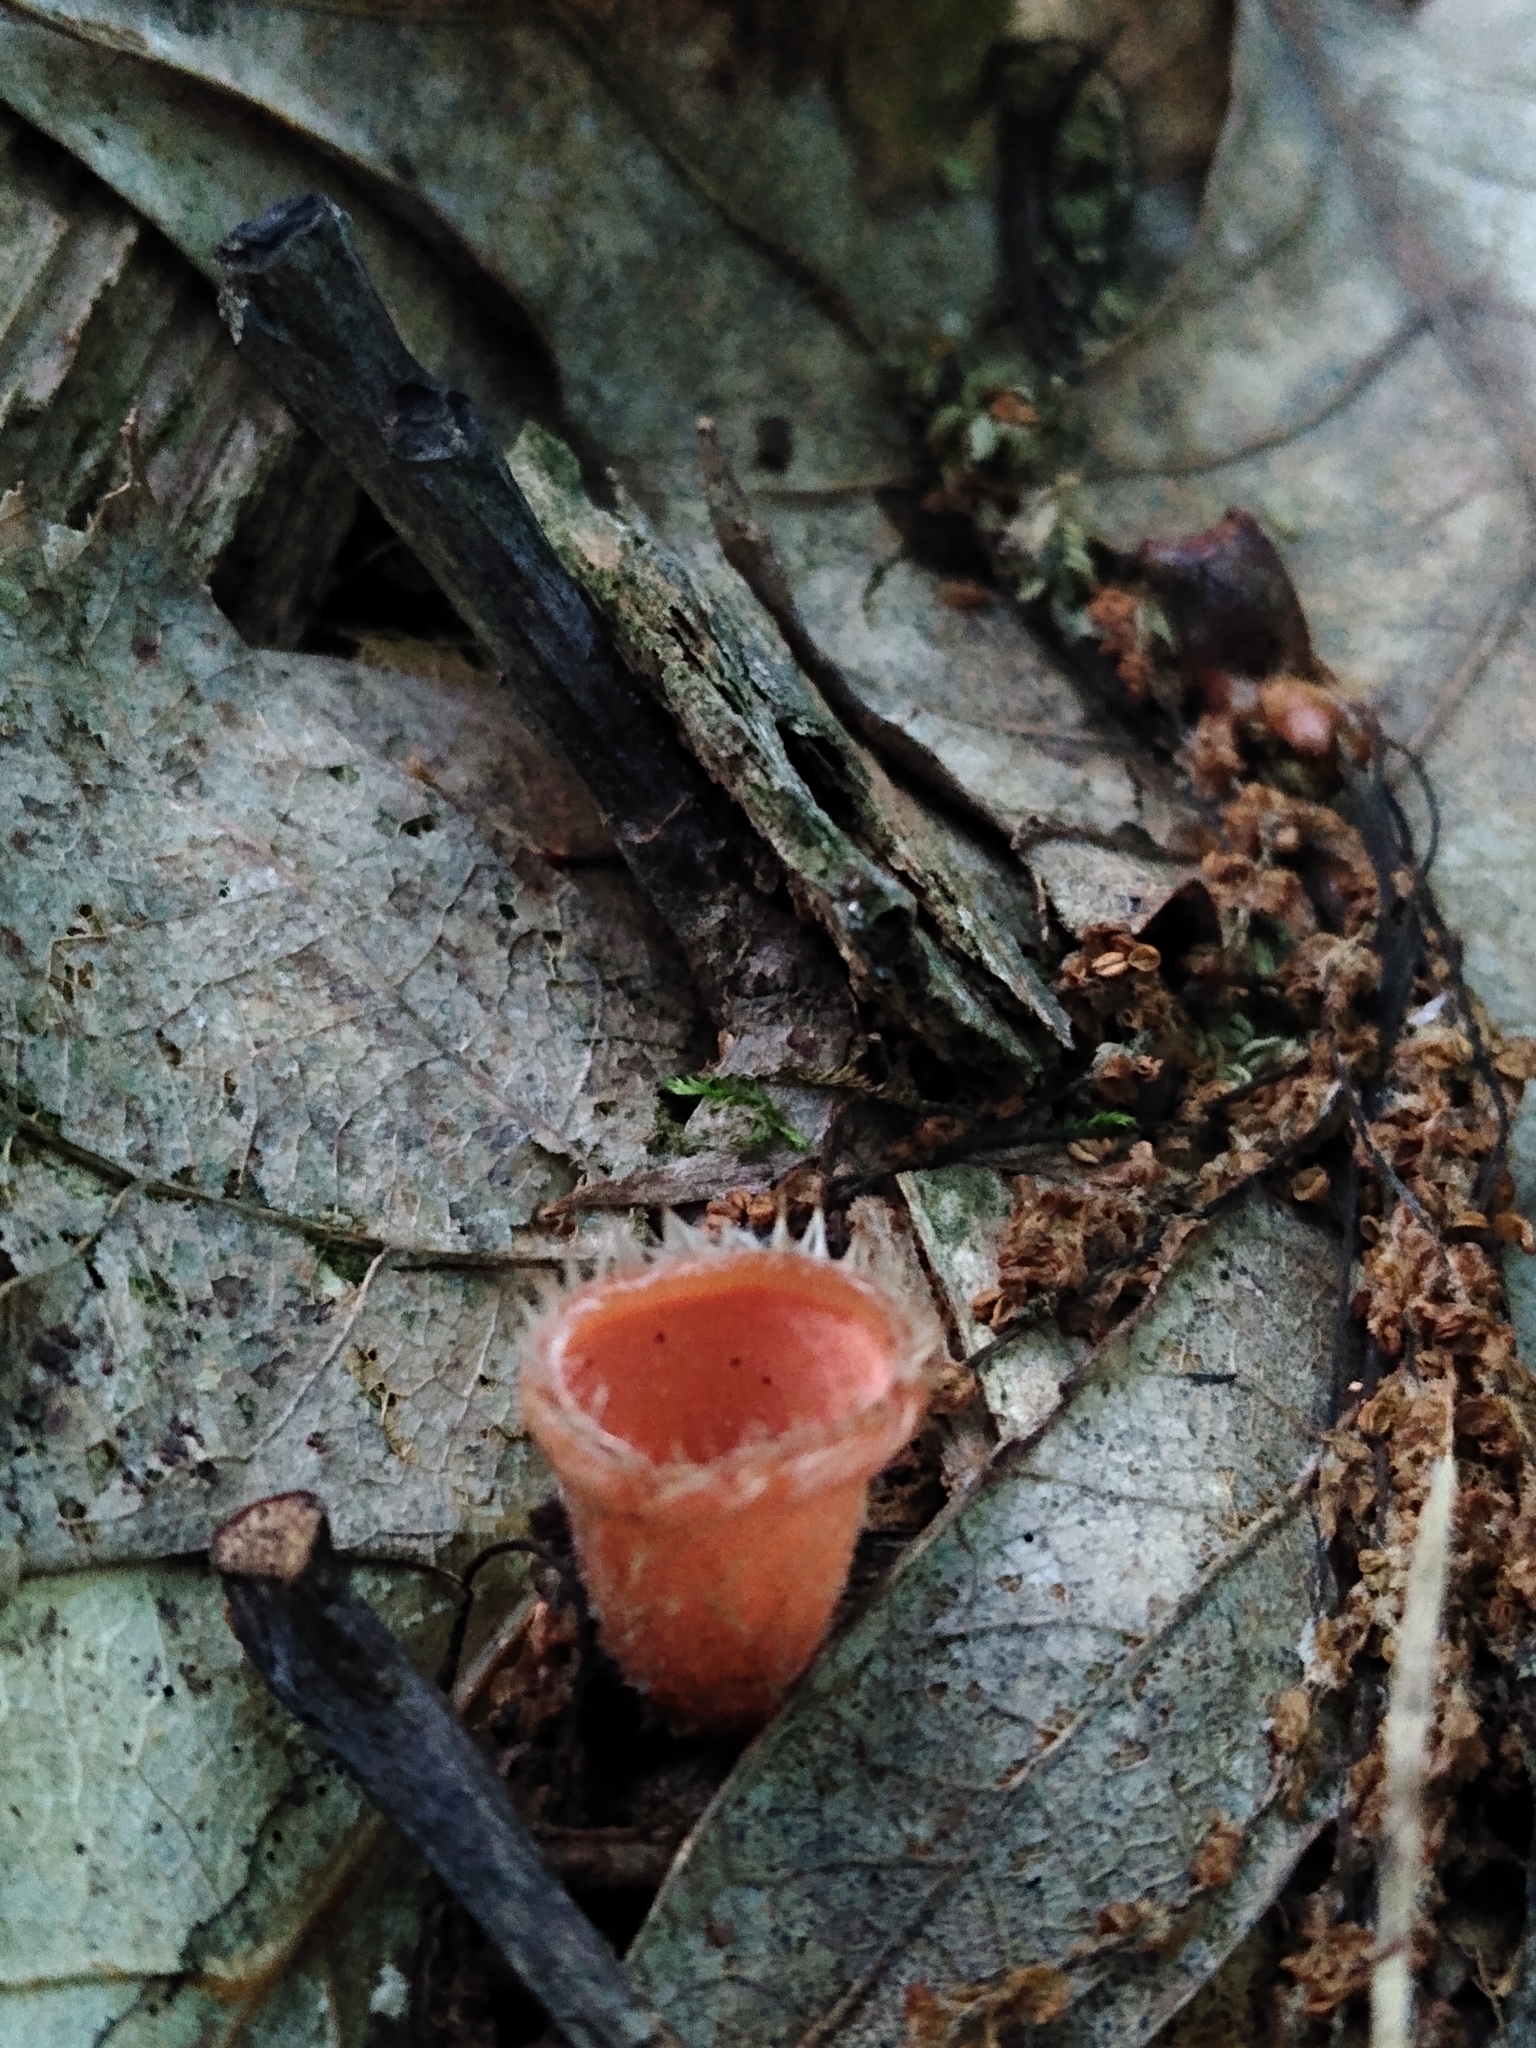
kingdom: Fungi
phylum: Ascomycota
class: Pezizomycetes
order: Pezizales
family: Sarcoscyphaceae
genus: Microstoma
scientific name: Microstoma floccosum
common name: Pink fringed faery cup
